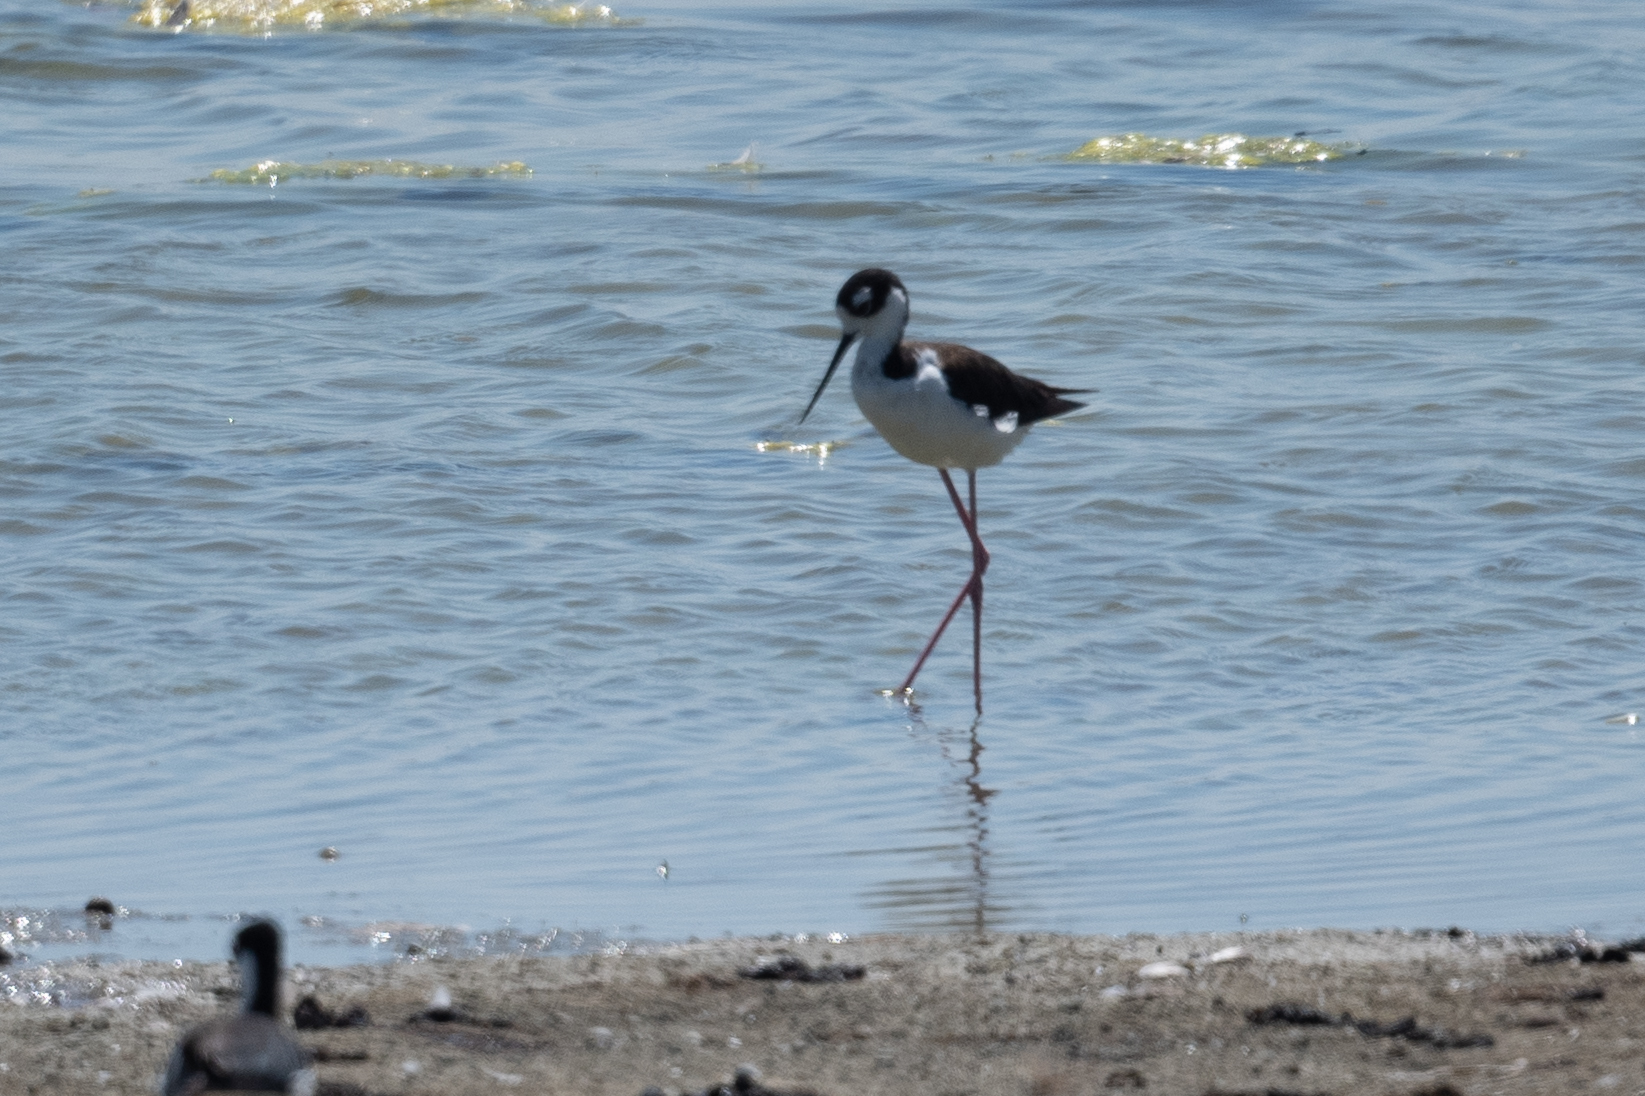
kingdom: Animalia
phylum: Chordata
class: Aves
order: Charadriiformes
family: Recurvirostridae
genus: Himantopus
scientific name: Himantopus mexicanus
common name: Black-necked stilt
